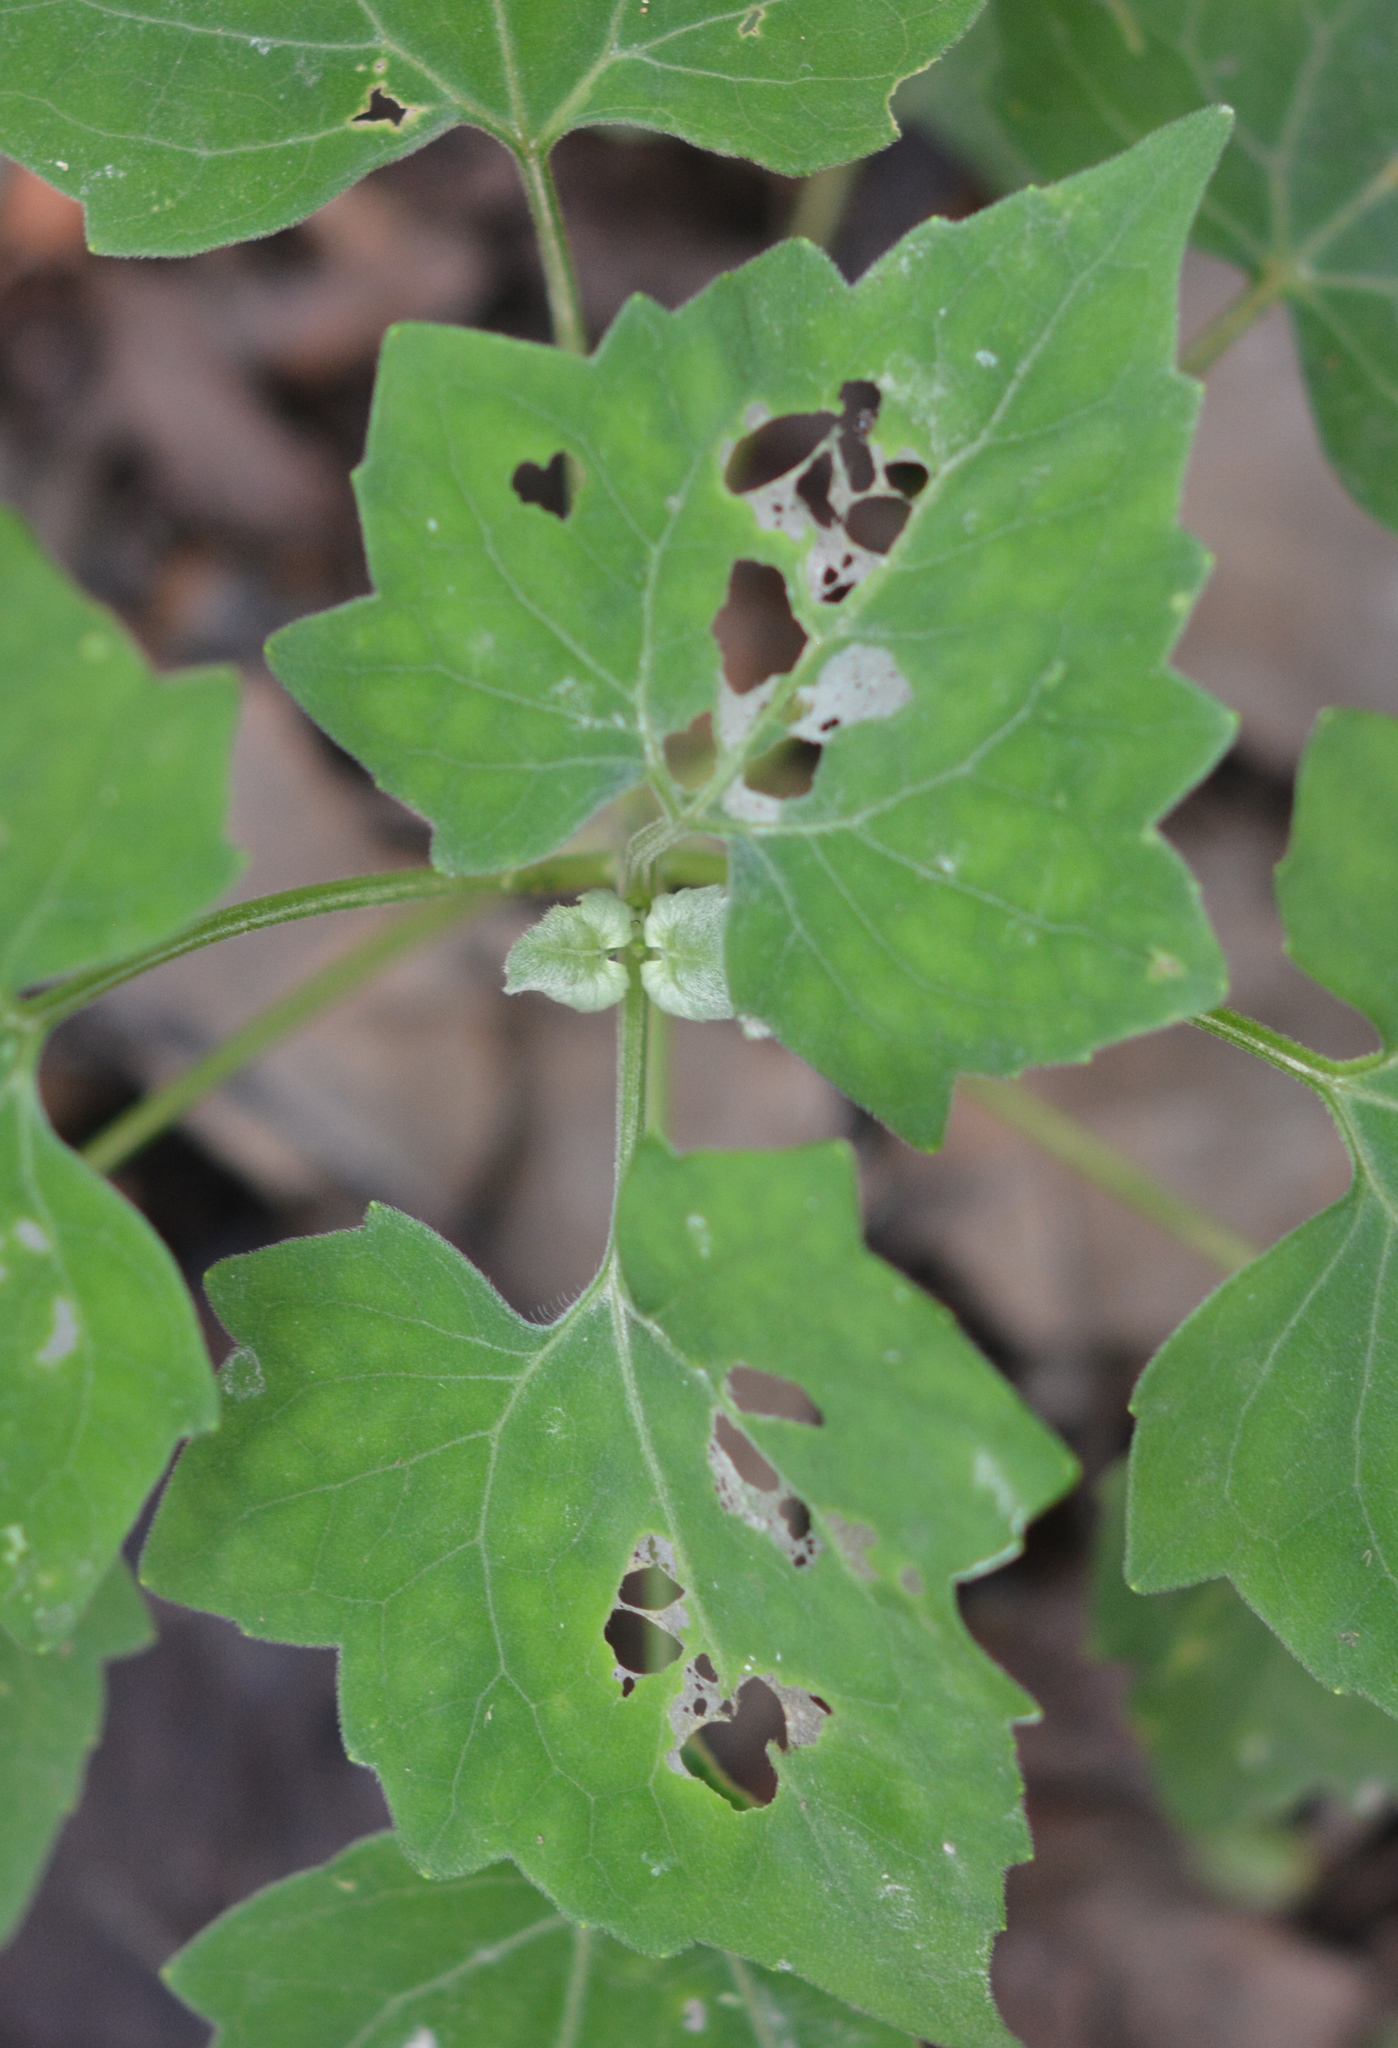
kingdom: Animalia
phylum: Arthropoda
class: Insecta
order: Lepidoptera
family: Erebidae
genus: Cosmosoma
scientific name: Cosmosoma myrodora
